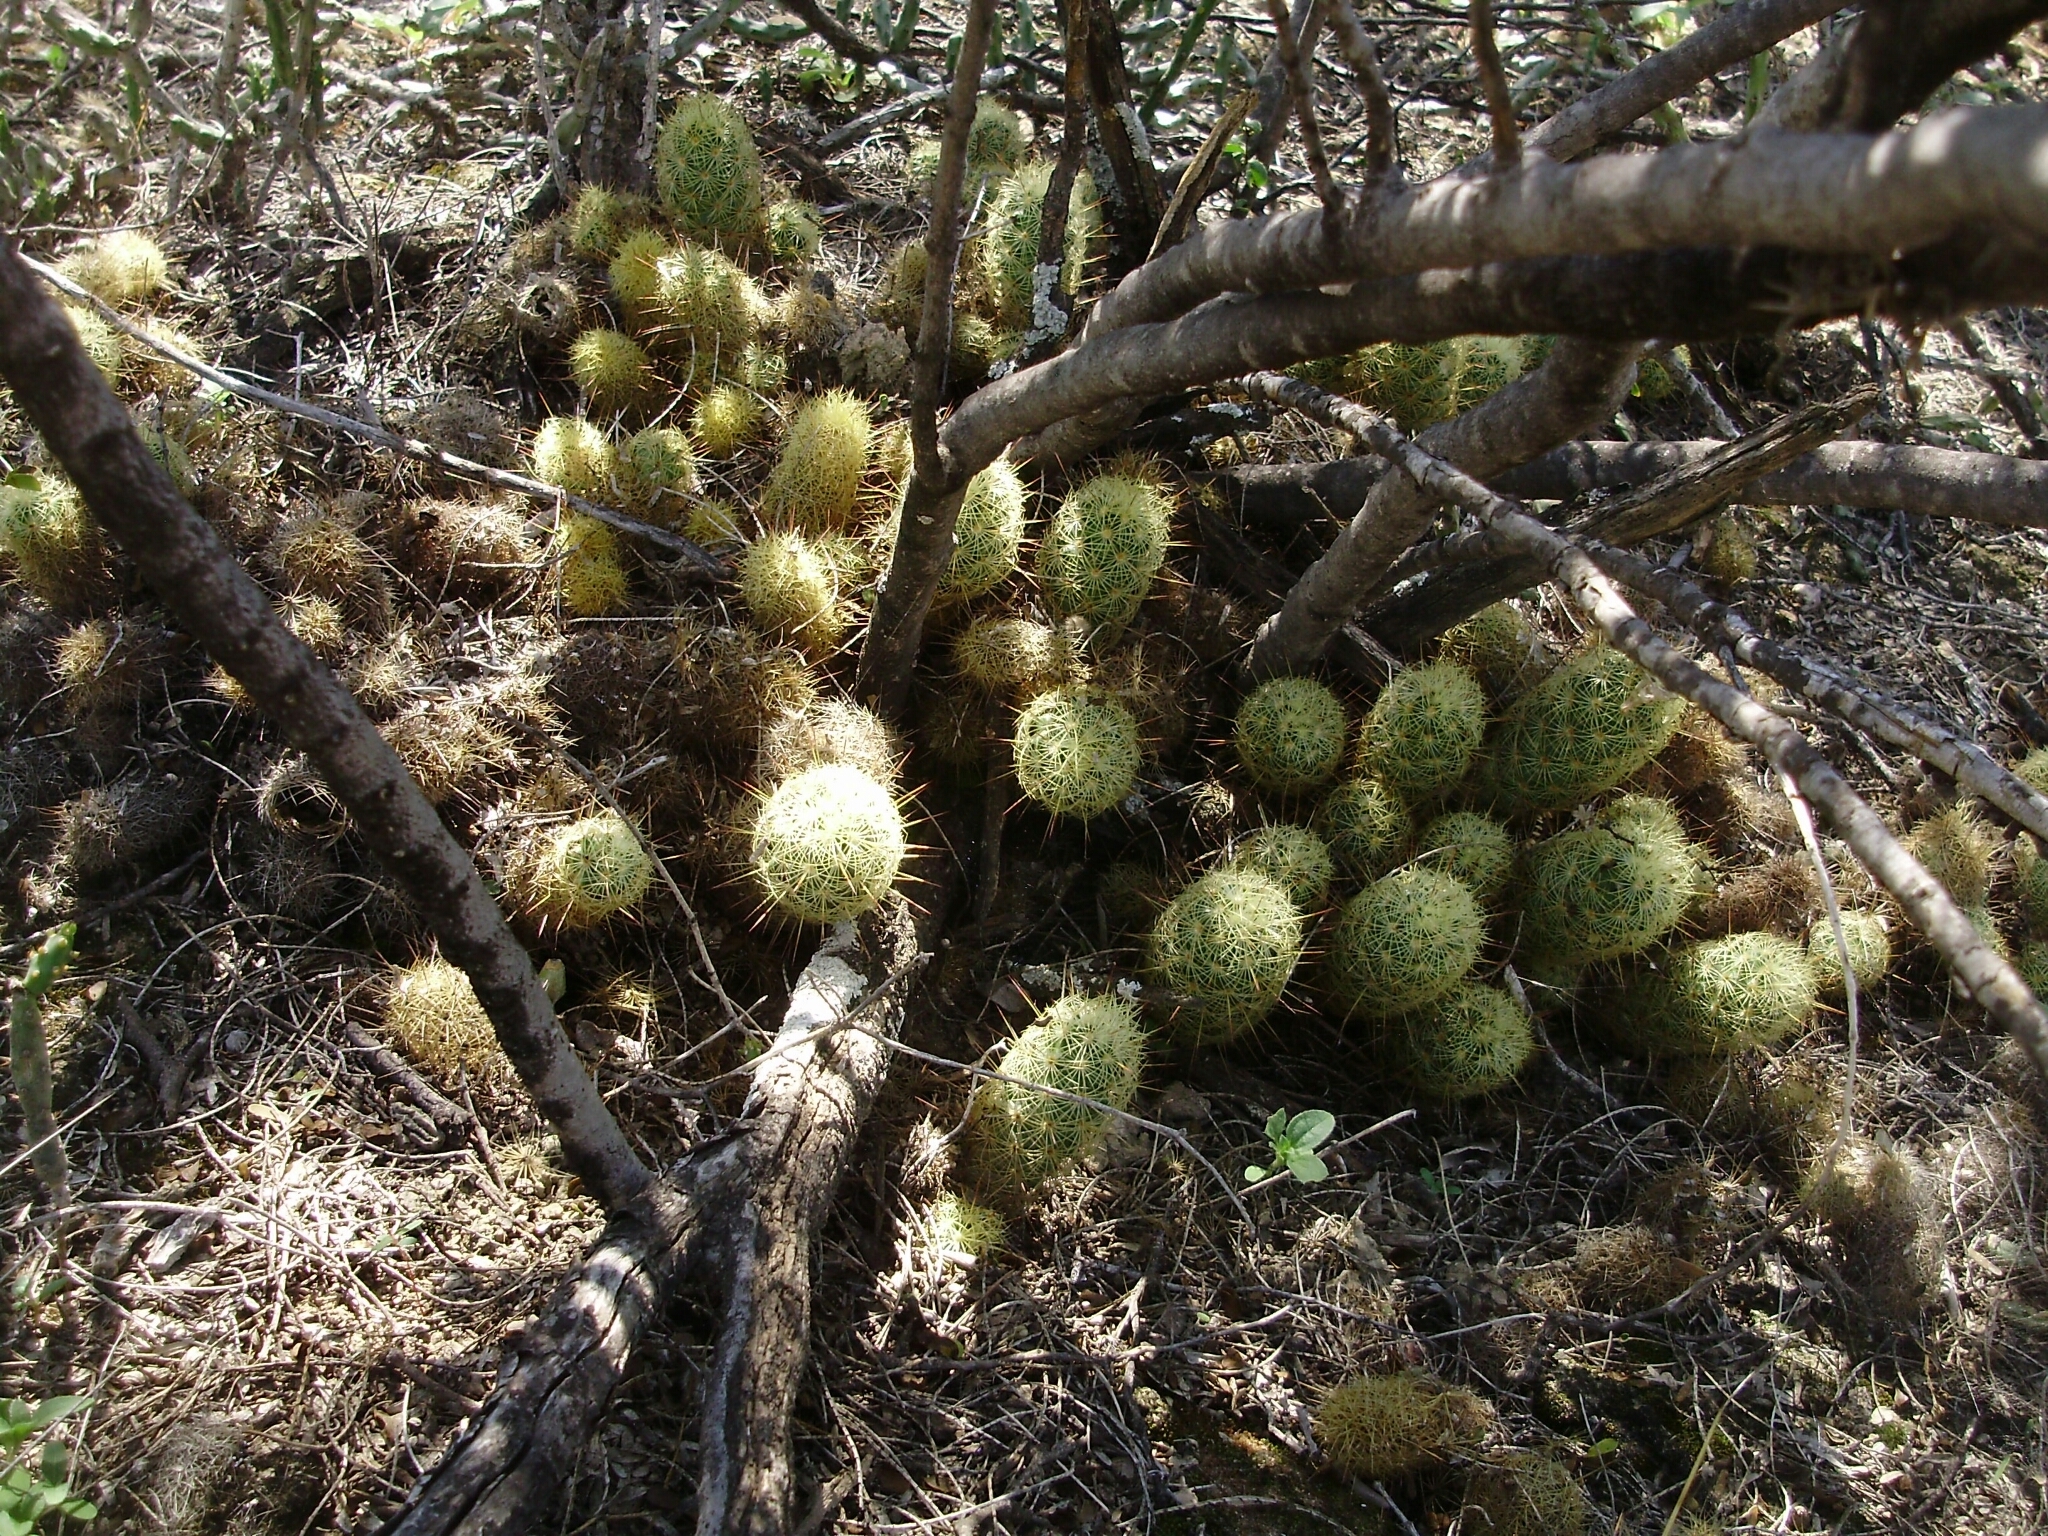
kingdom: Plantae
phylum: Tracheophyta
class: Magnoliopsida
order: Caryophyllales
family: Cactaceae
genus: Mammillaria
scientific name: Mammillaria elongata
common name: Golden star cactus
